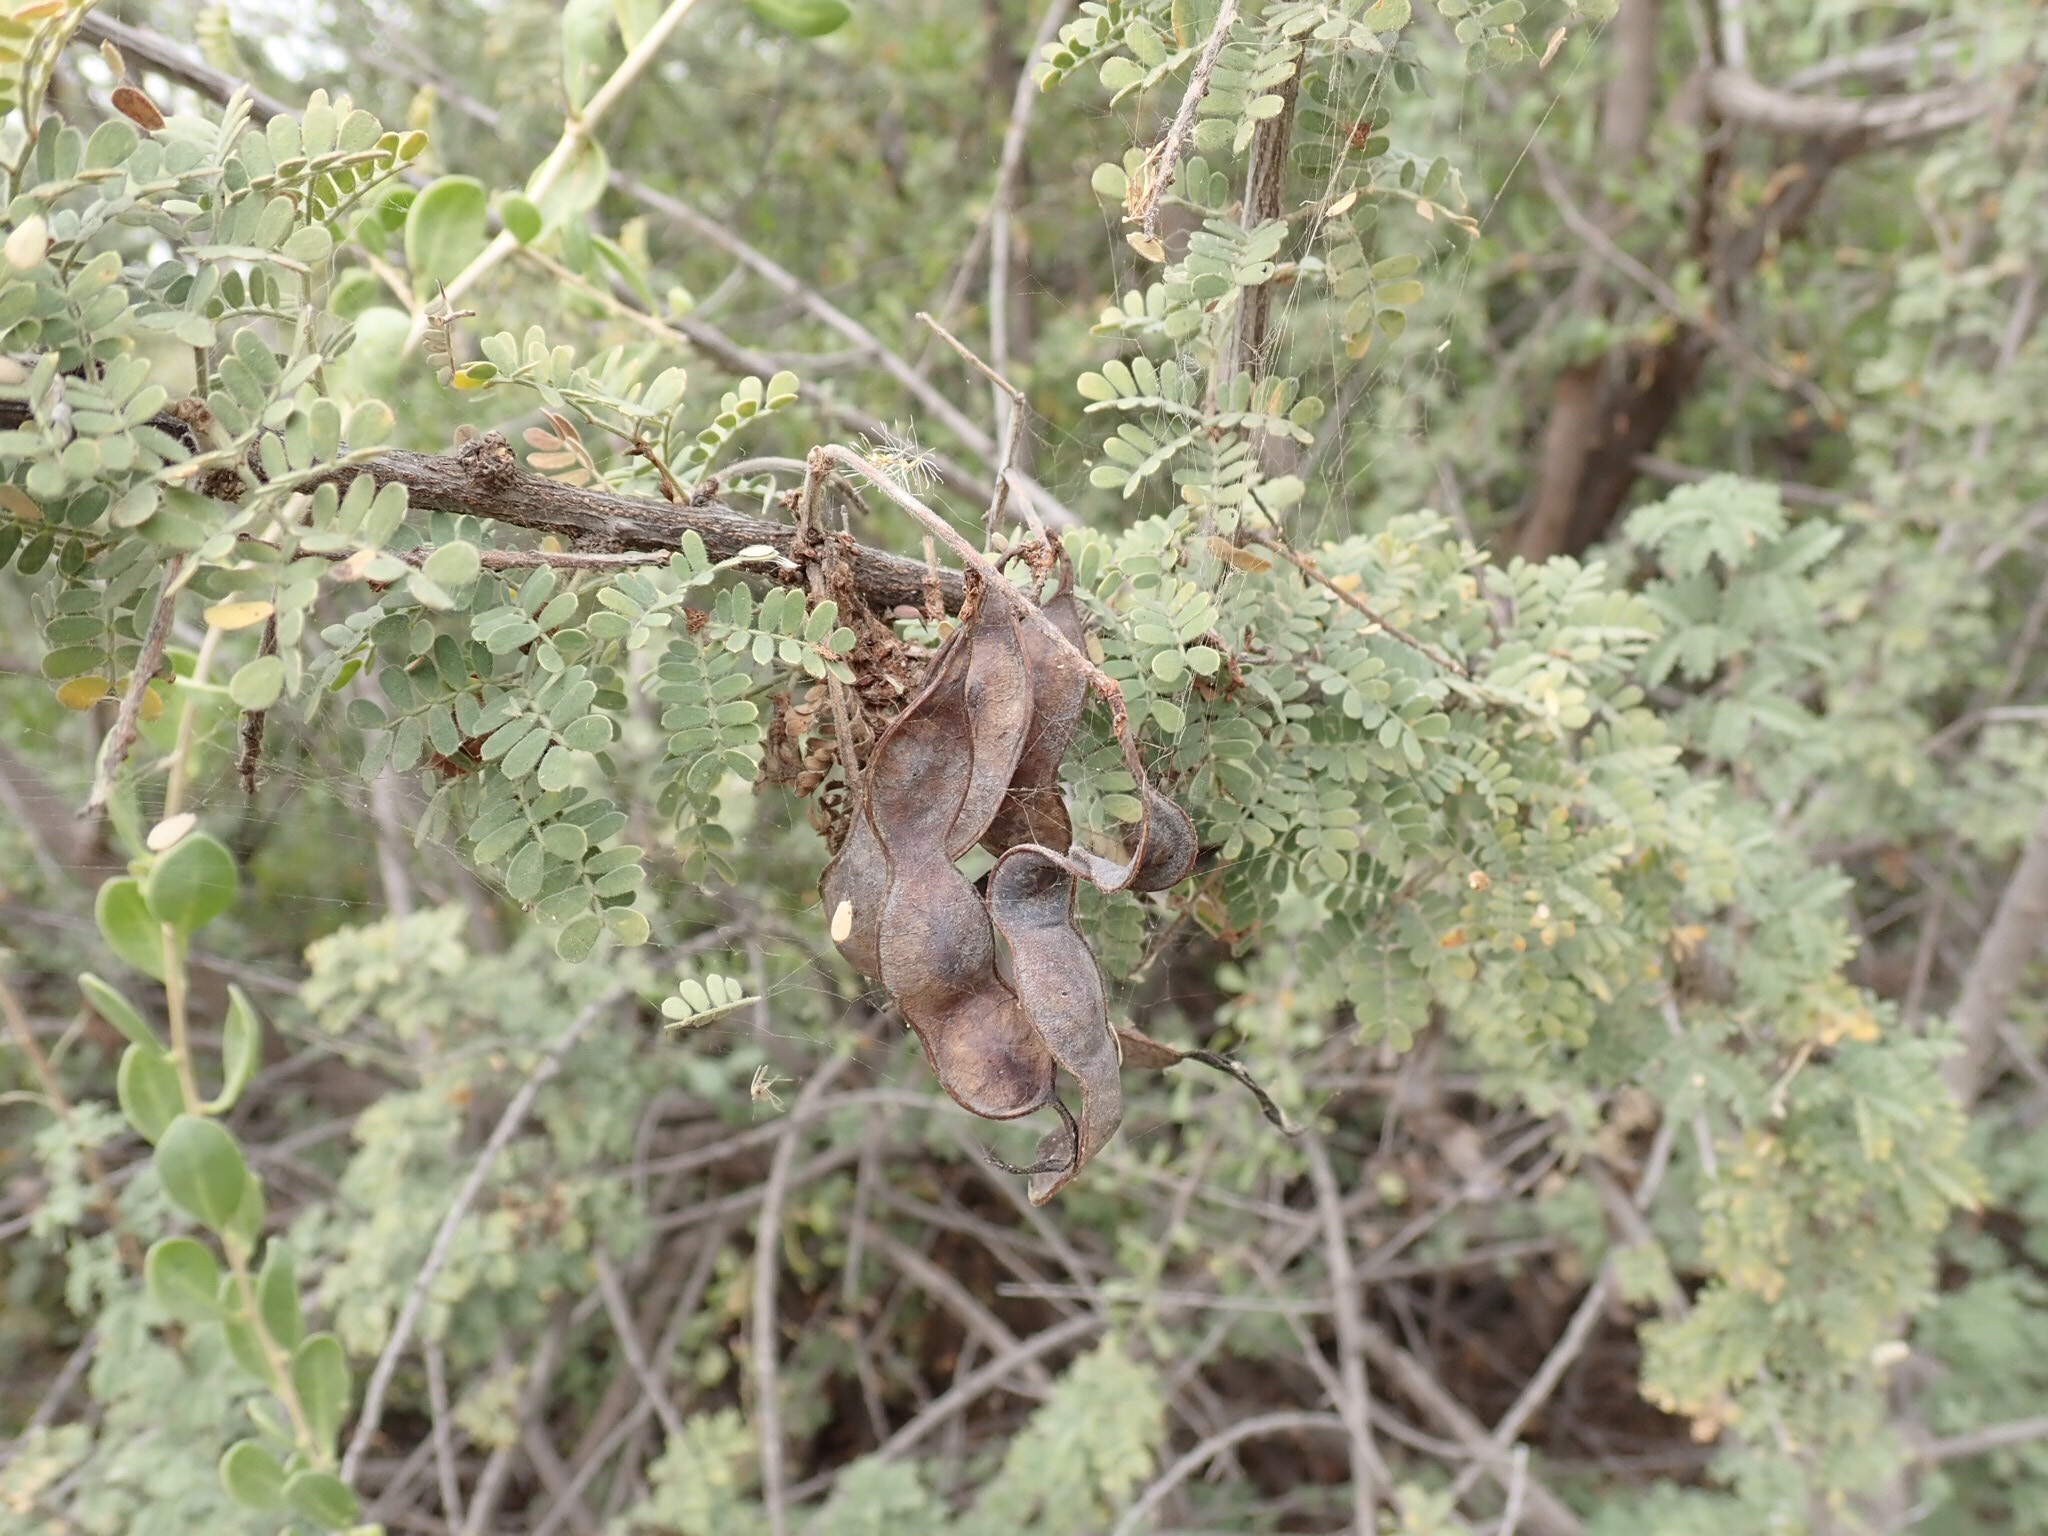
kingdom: Plantae
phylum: Tracheophyta
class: Magnoliopsida
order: Fabales
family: Fabaceae
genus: Senegalia
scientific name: Senegalia greggii
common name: Texas-mimosa
